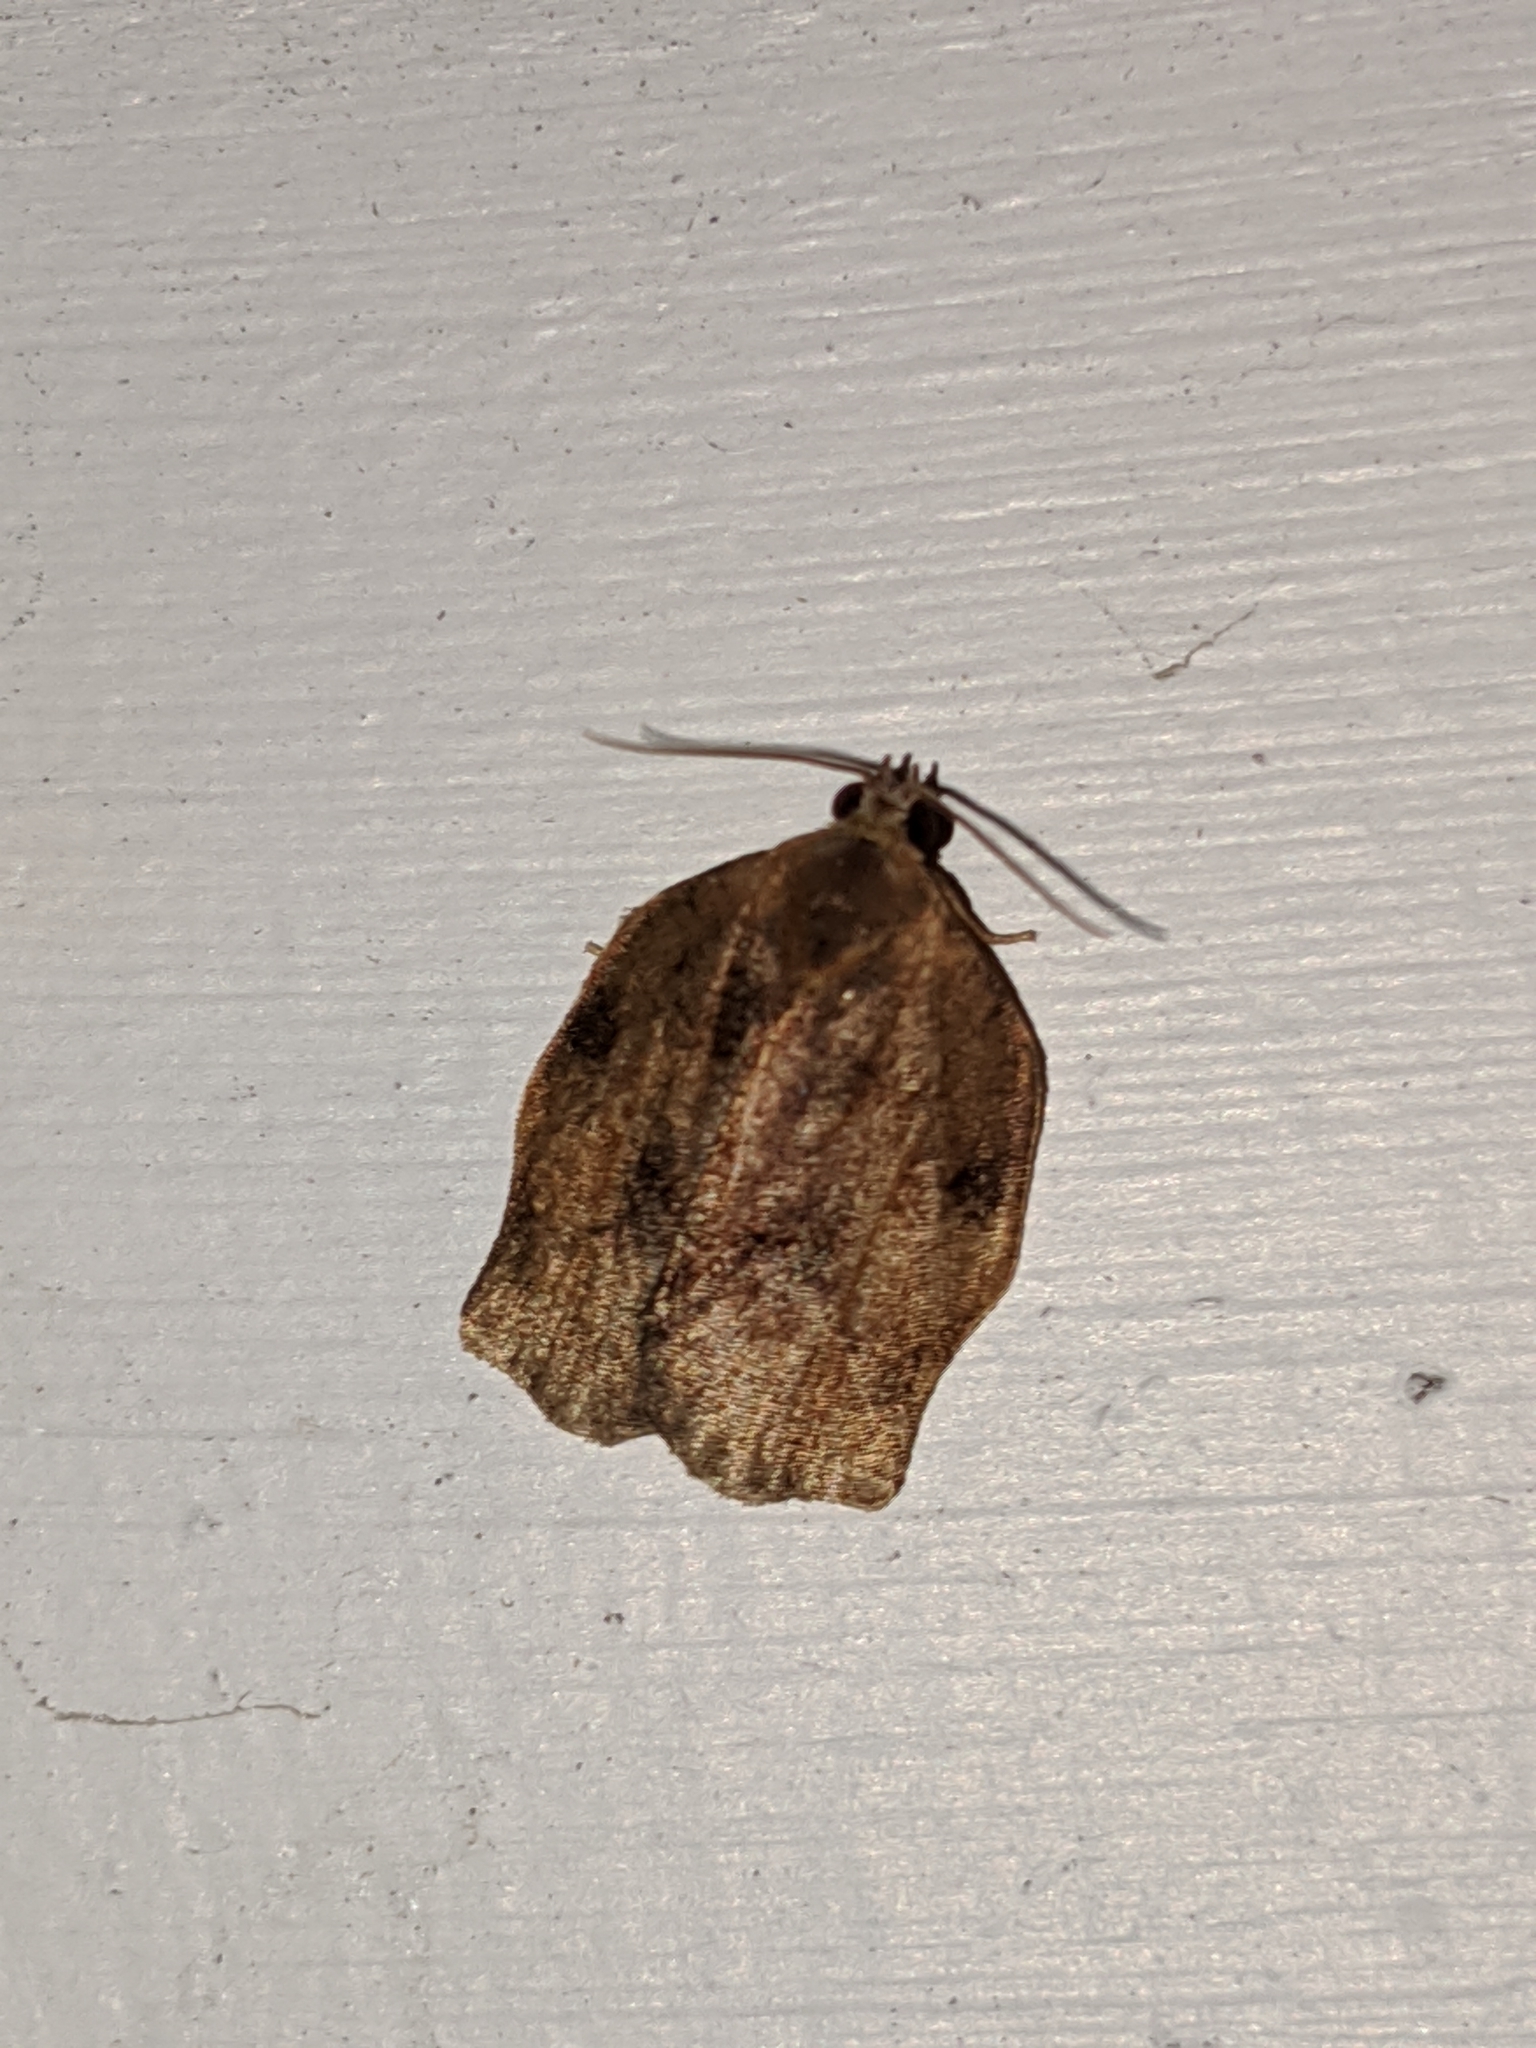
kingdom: Animalia
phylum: Arthropoda
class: Insecta
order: Lepidoptera
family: Tortricidae
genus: Archips
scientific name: Archips purpurana
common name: Omnivorous leafroller
